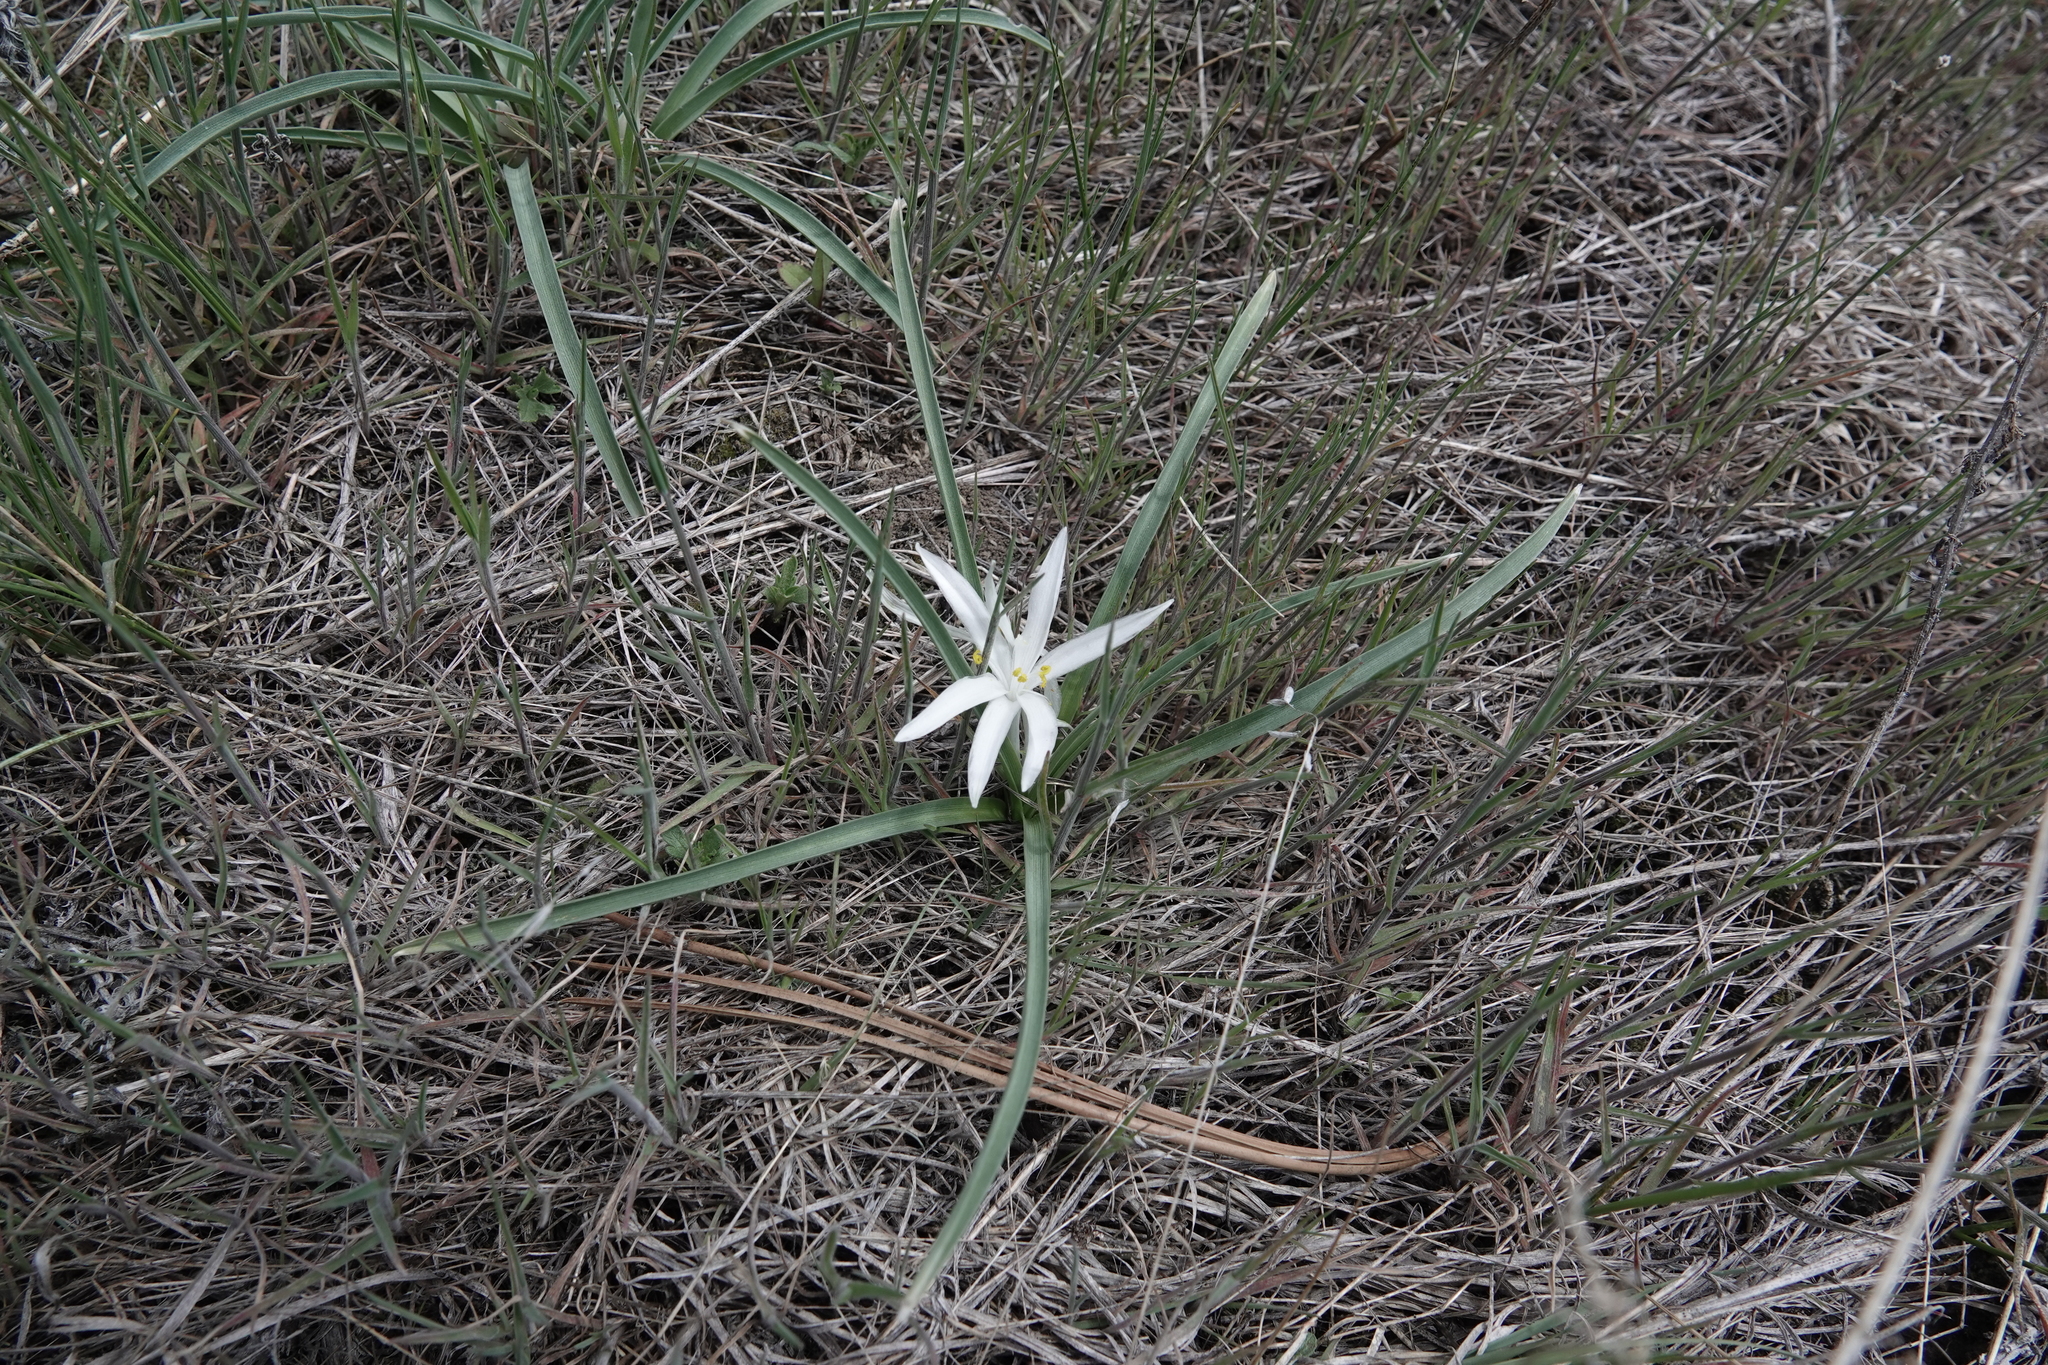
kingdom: Plantae
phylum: Tracheophyta
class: Liliopsida
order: Asparagales
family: Asparagaceae
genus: Leucocrinum
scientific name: Leucocrinum montanum
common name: Mountain-lily
